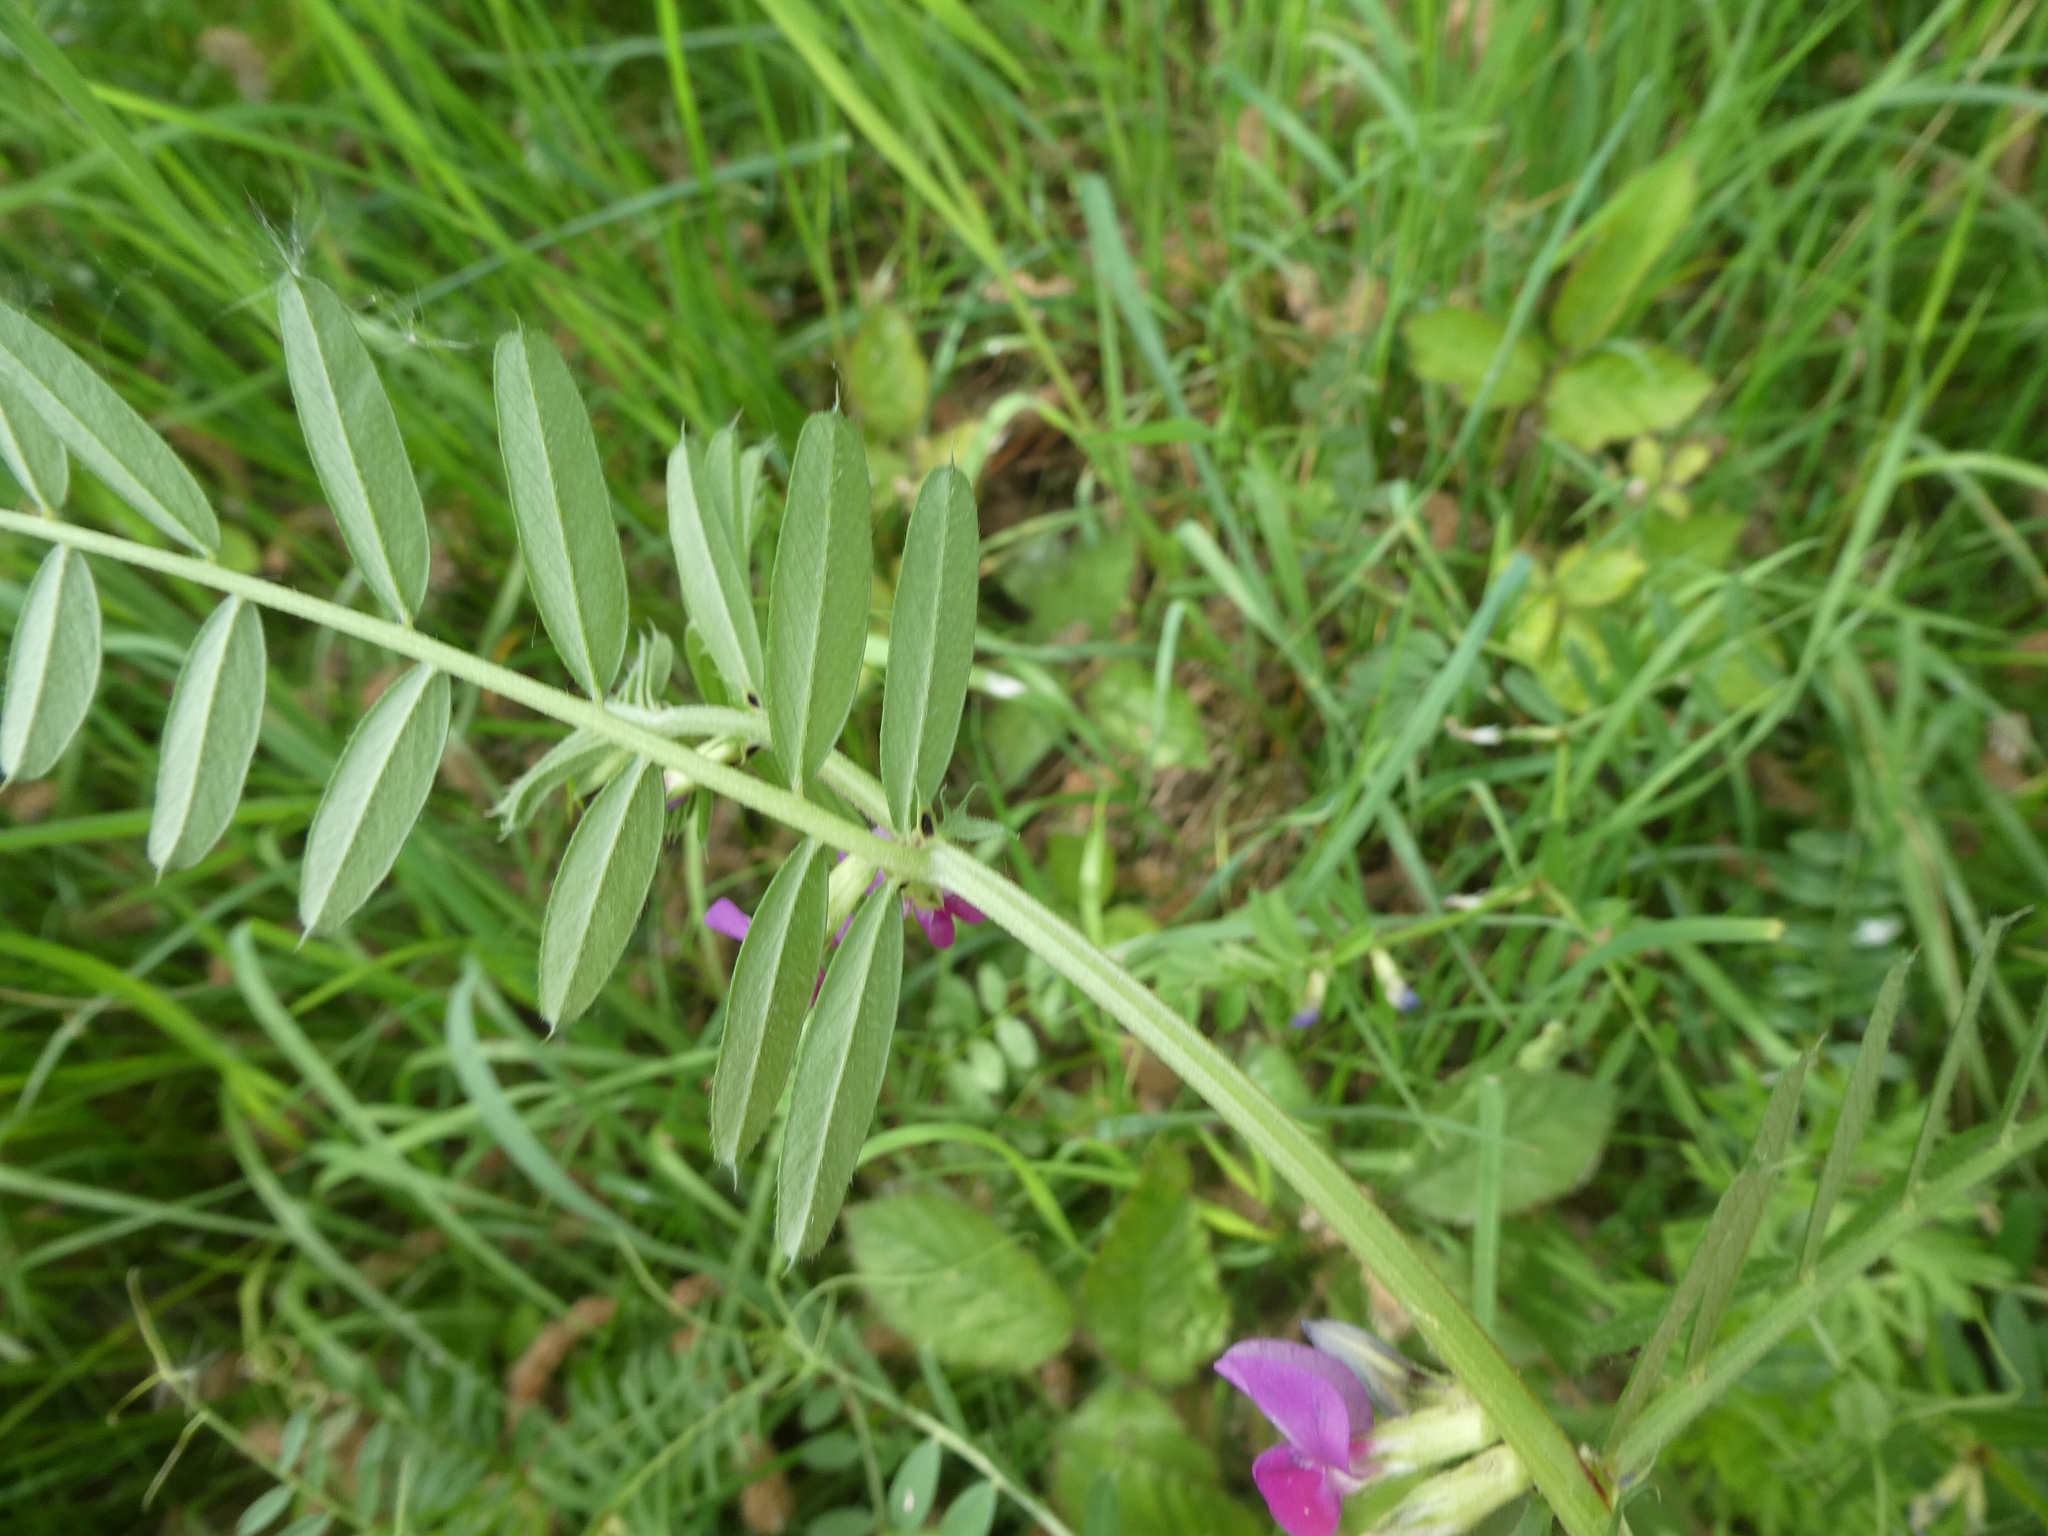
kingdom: Plantae
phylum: Tracheophyta
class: Magnoliopsida
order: Fabales
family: Fabaceae
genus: Vicia
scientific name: Vicia sativa
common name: Garden vetch
